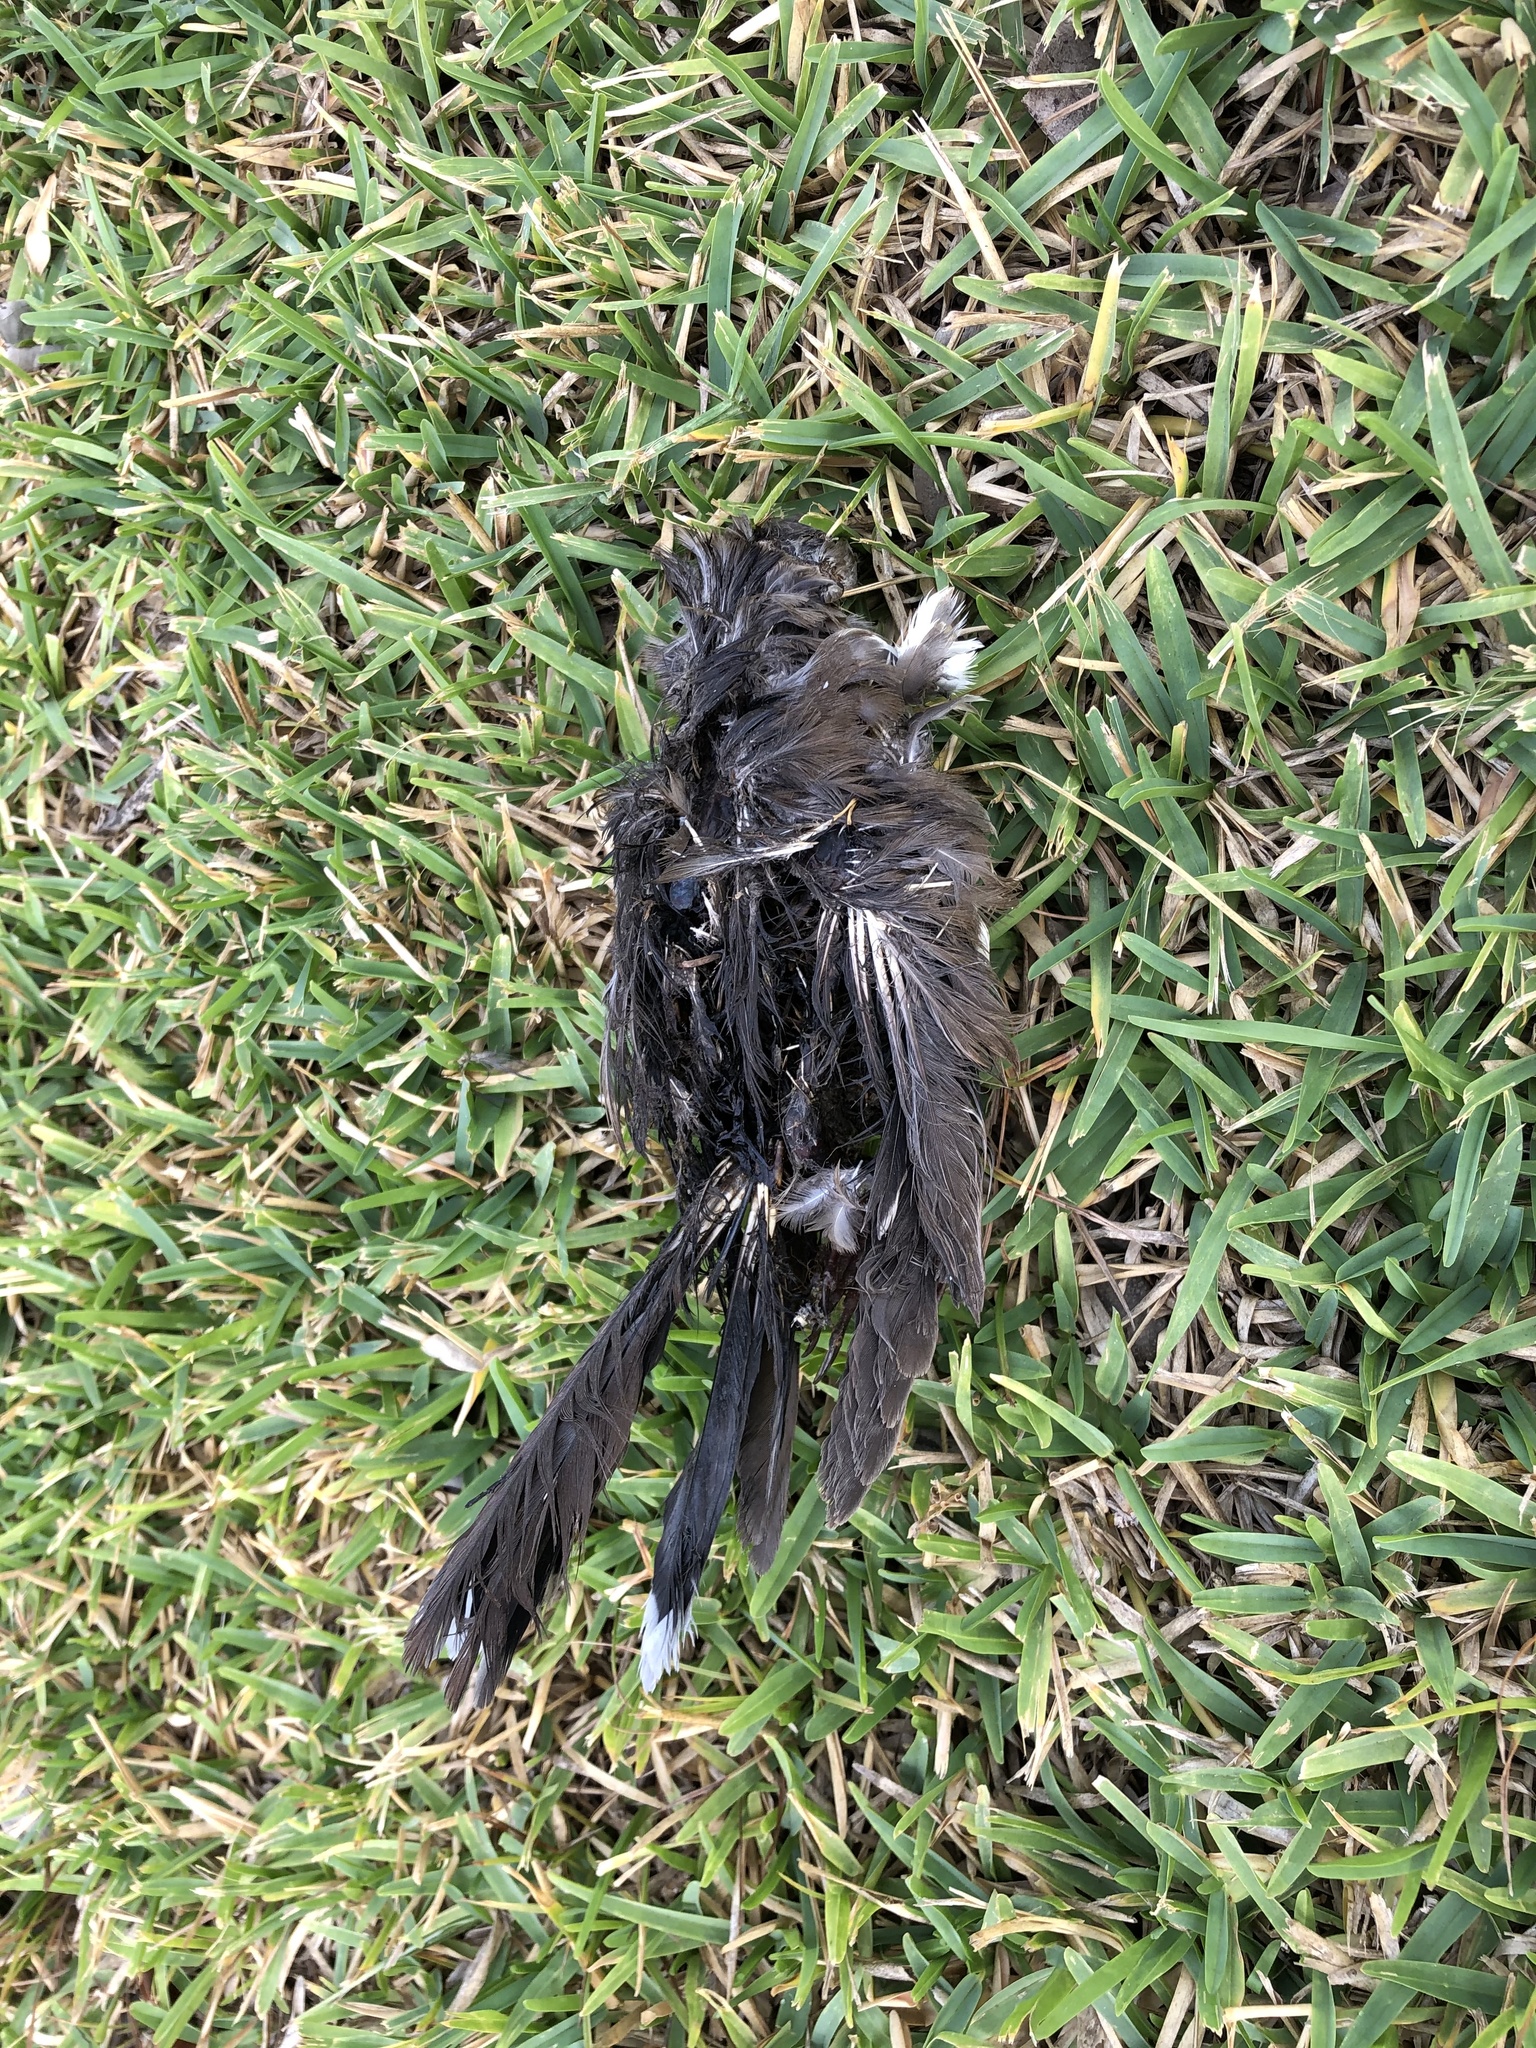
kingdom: Animalia
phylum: Chordata
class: Aves
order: Columbiformes
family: Columbidae
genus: Zenaida
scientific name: Zenaida meloda
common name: West peruvian dove
